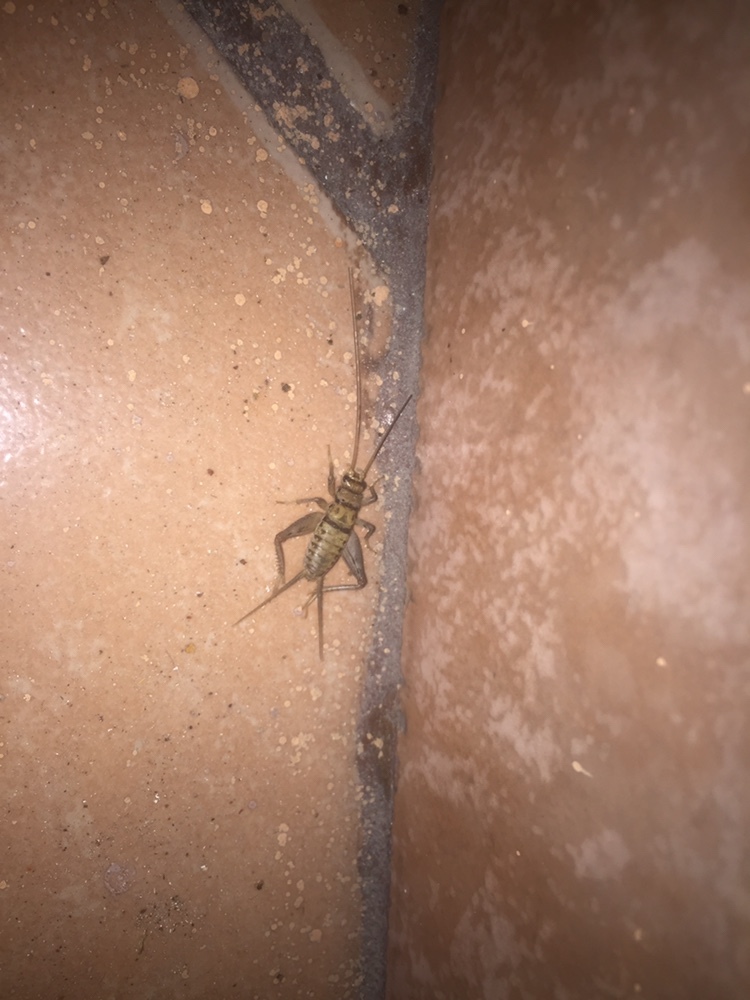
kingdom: Animalia
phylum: Arthropoda
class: Insecta
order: Orthoptera
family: Gryllidae
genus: Gryllodes
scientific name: Gryllodes sigillatus
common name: Tropical house cricket
